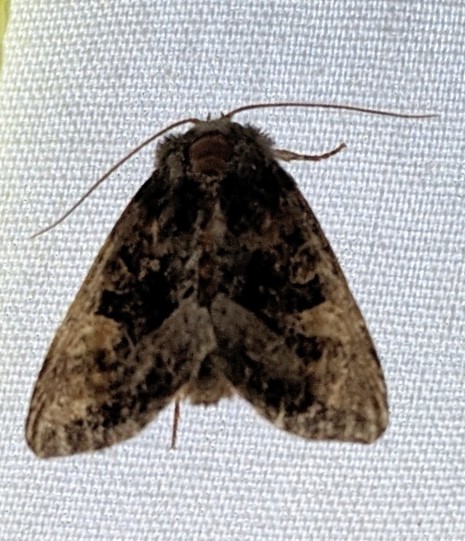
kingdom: Animalia
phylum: Arthropoda
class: Insecta
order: Lepidoptera
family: Noctuidae
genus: Euplexia
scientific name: Euplexia benesimilis
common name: American angle shades
